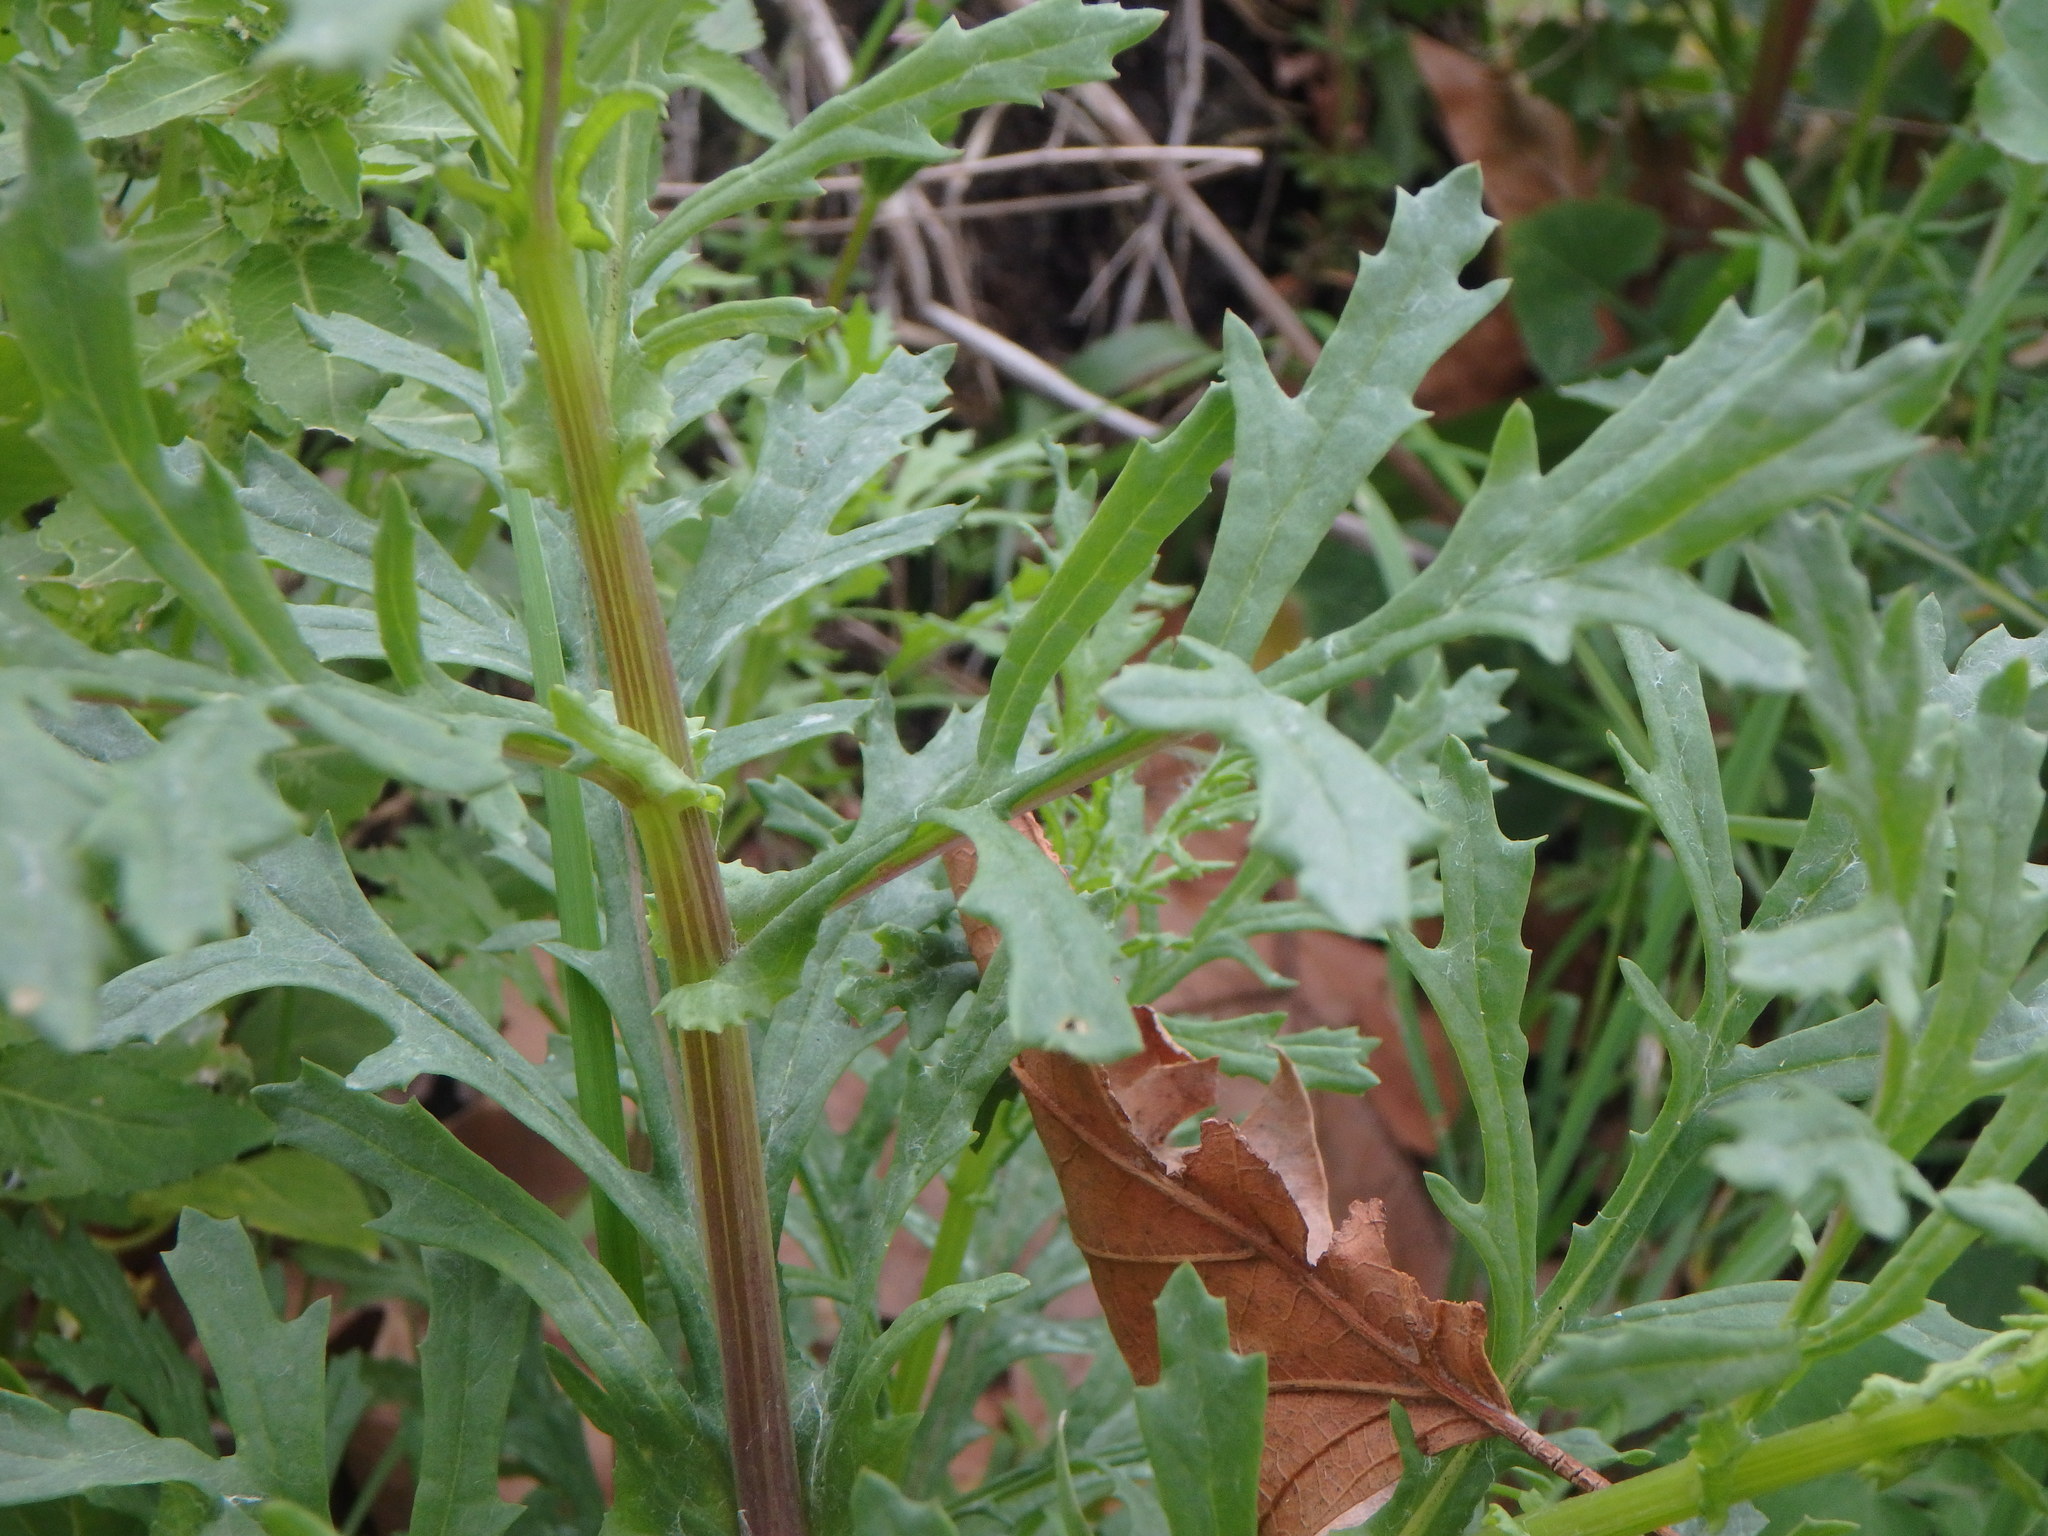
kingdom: Plantae
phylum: Tracheophyta
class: Magnoliopsida
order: Asterales
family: Asteraceae
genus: Senecio
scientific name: Senecio squalidus
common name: Oxford ragwort
